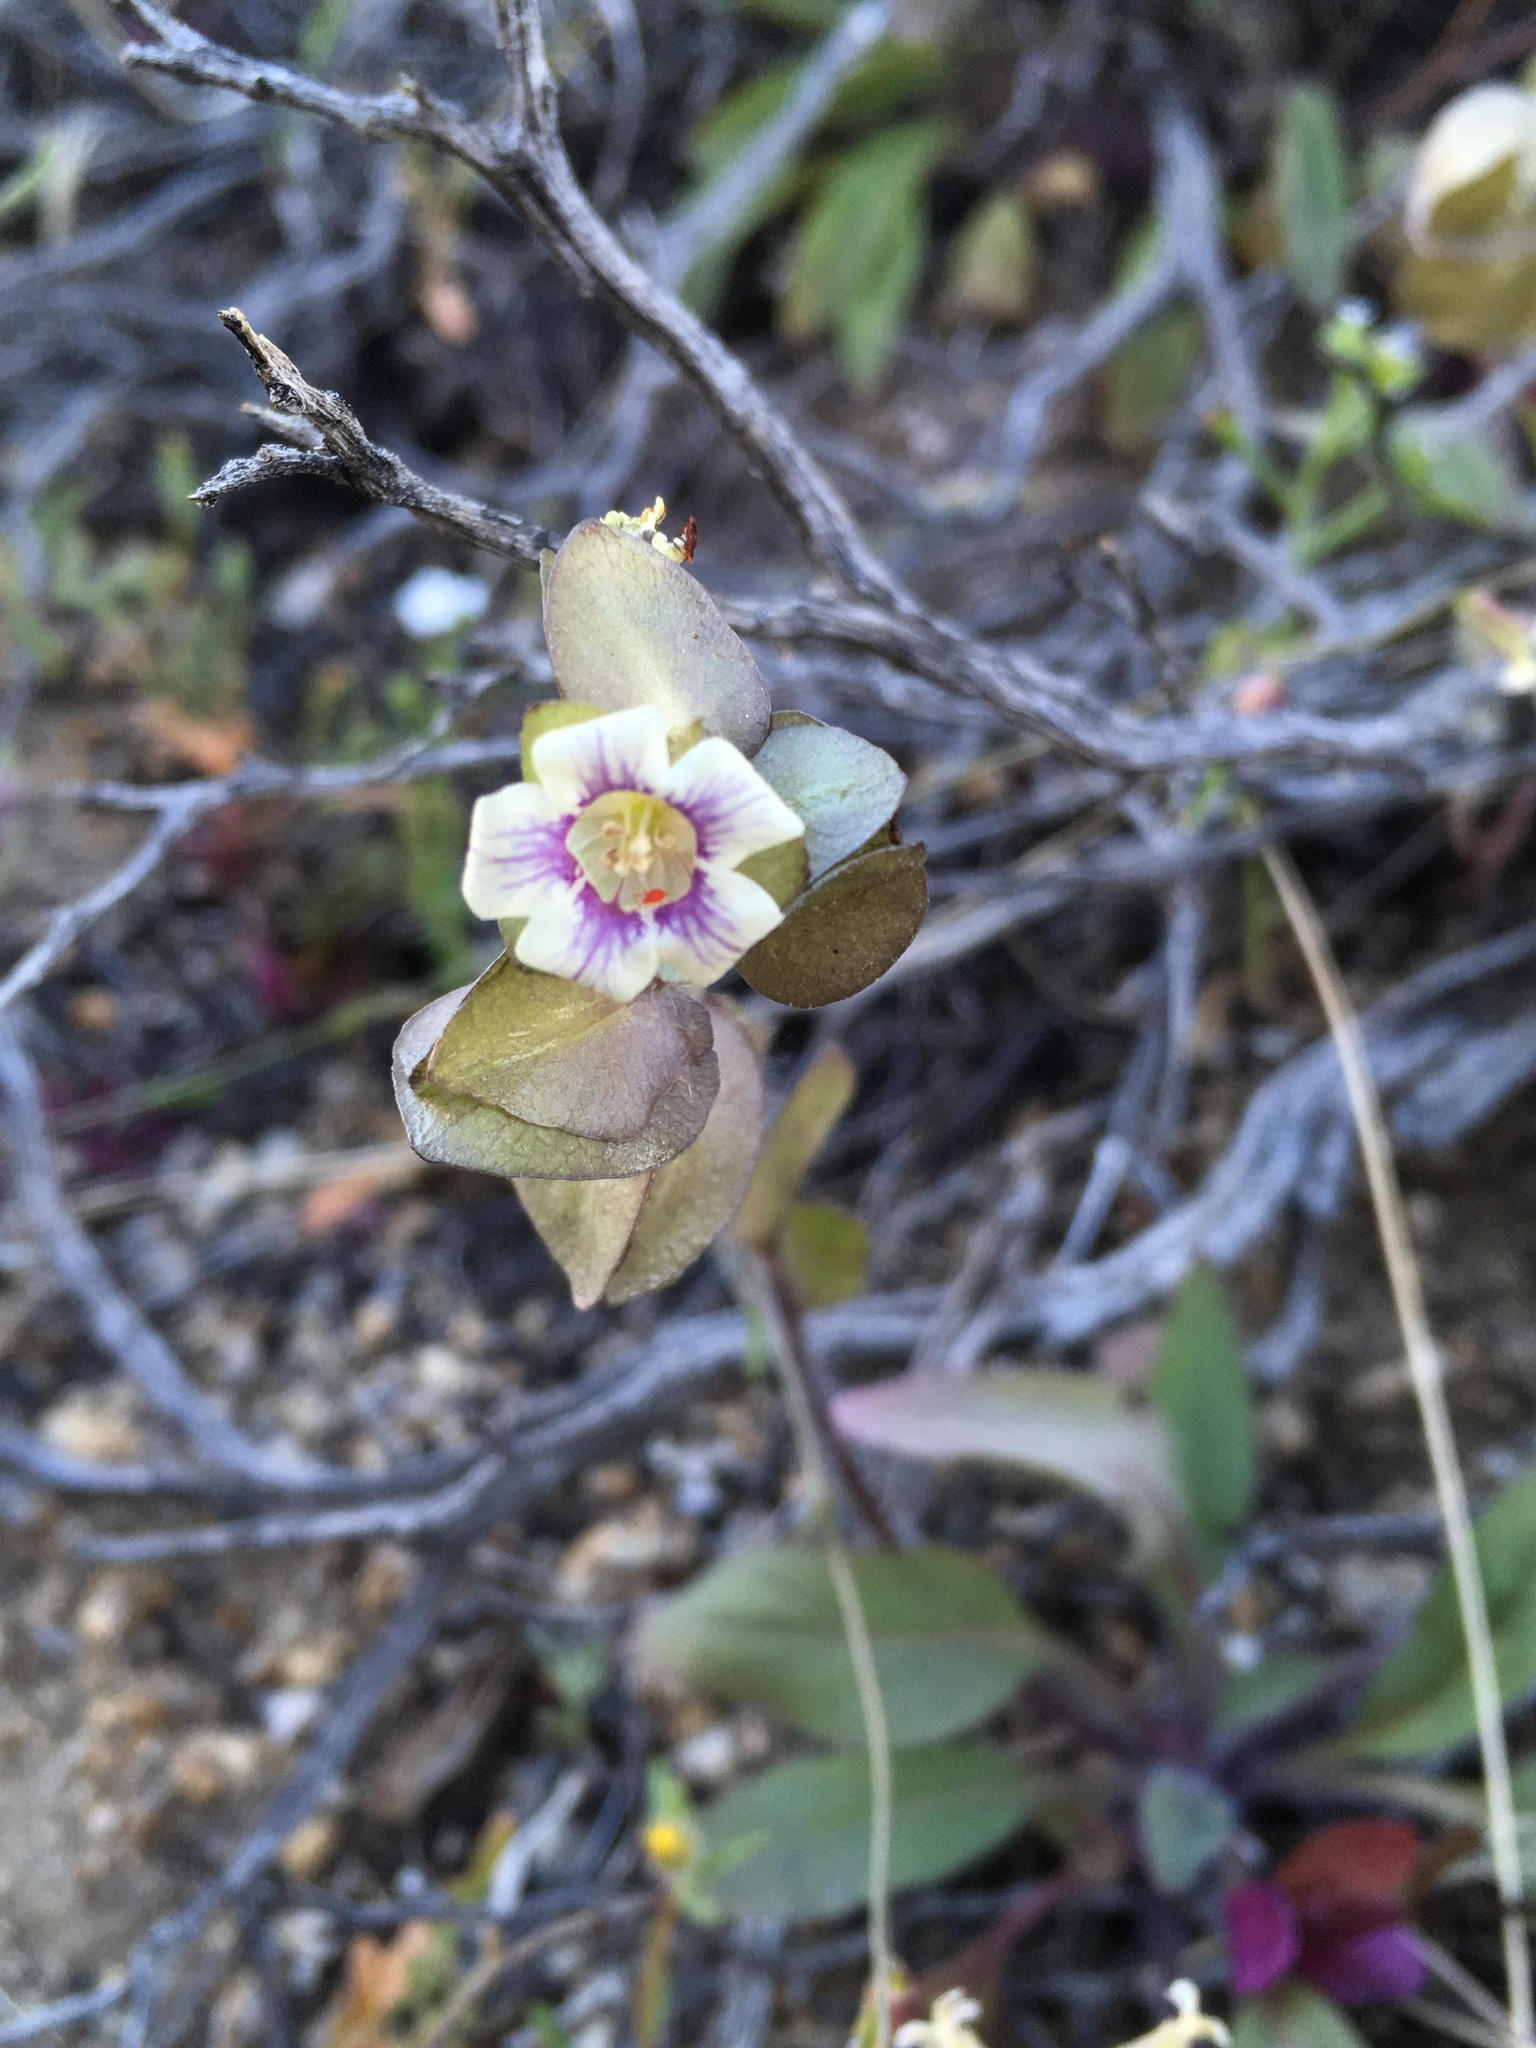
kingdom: Plantae
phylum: Tracheophyta
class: Magnoliopsida
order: Boraginales
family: Hydrophyllaceae
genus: Tricardia
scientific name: Tricardia watsonii
